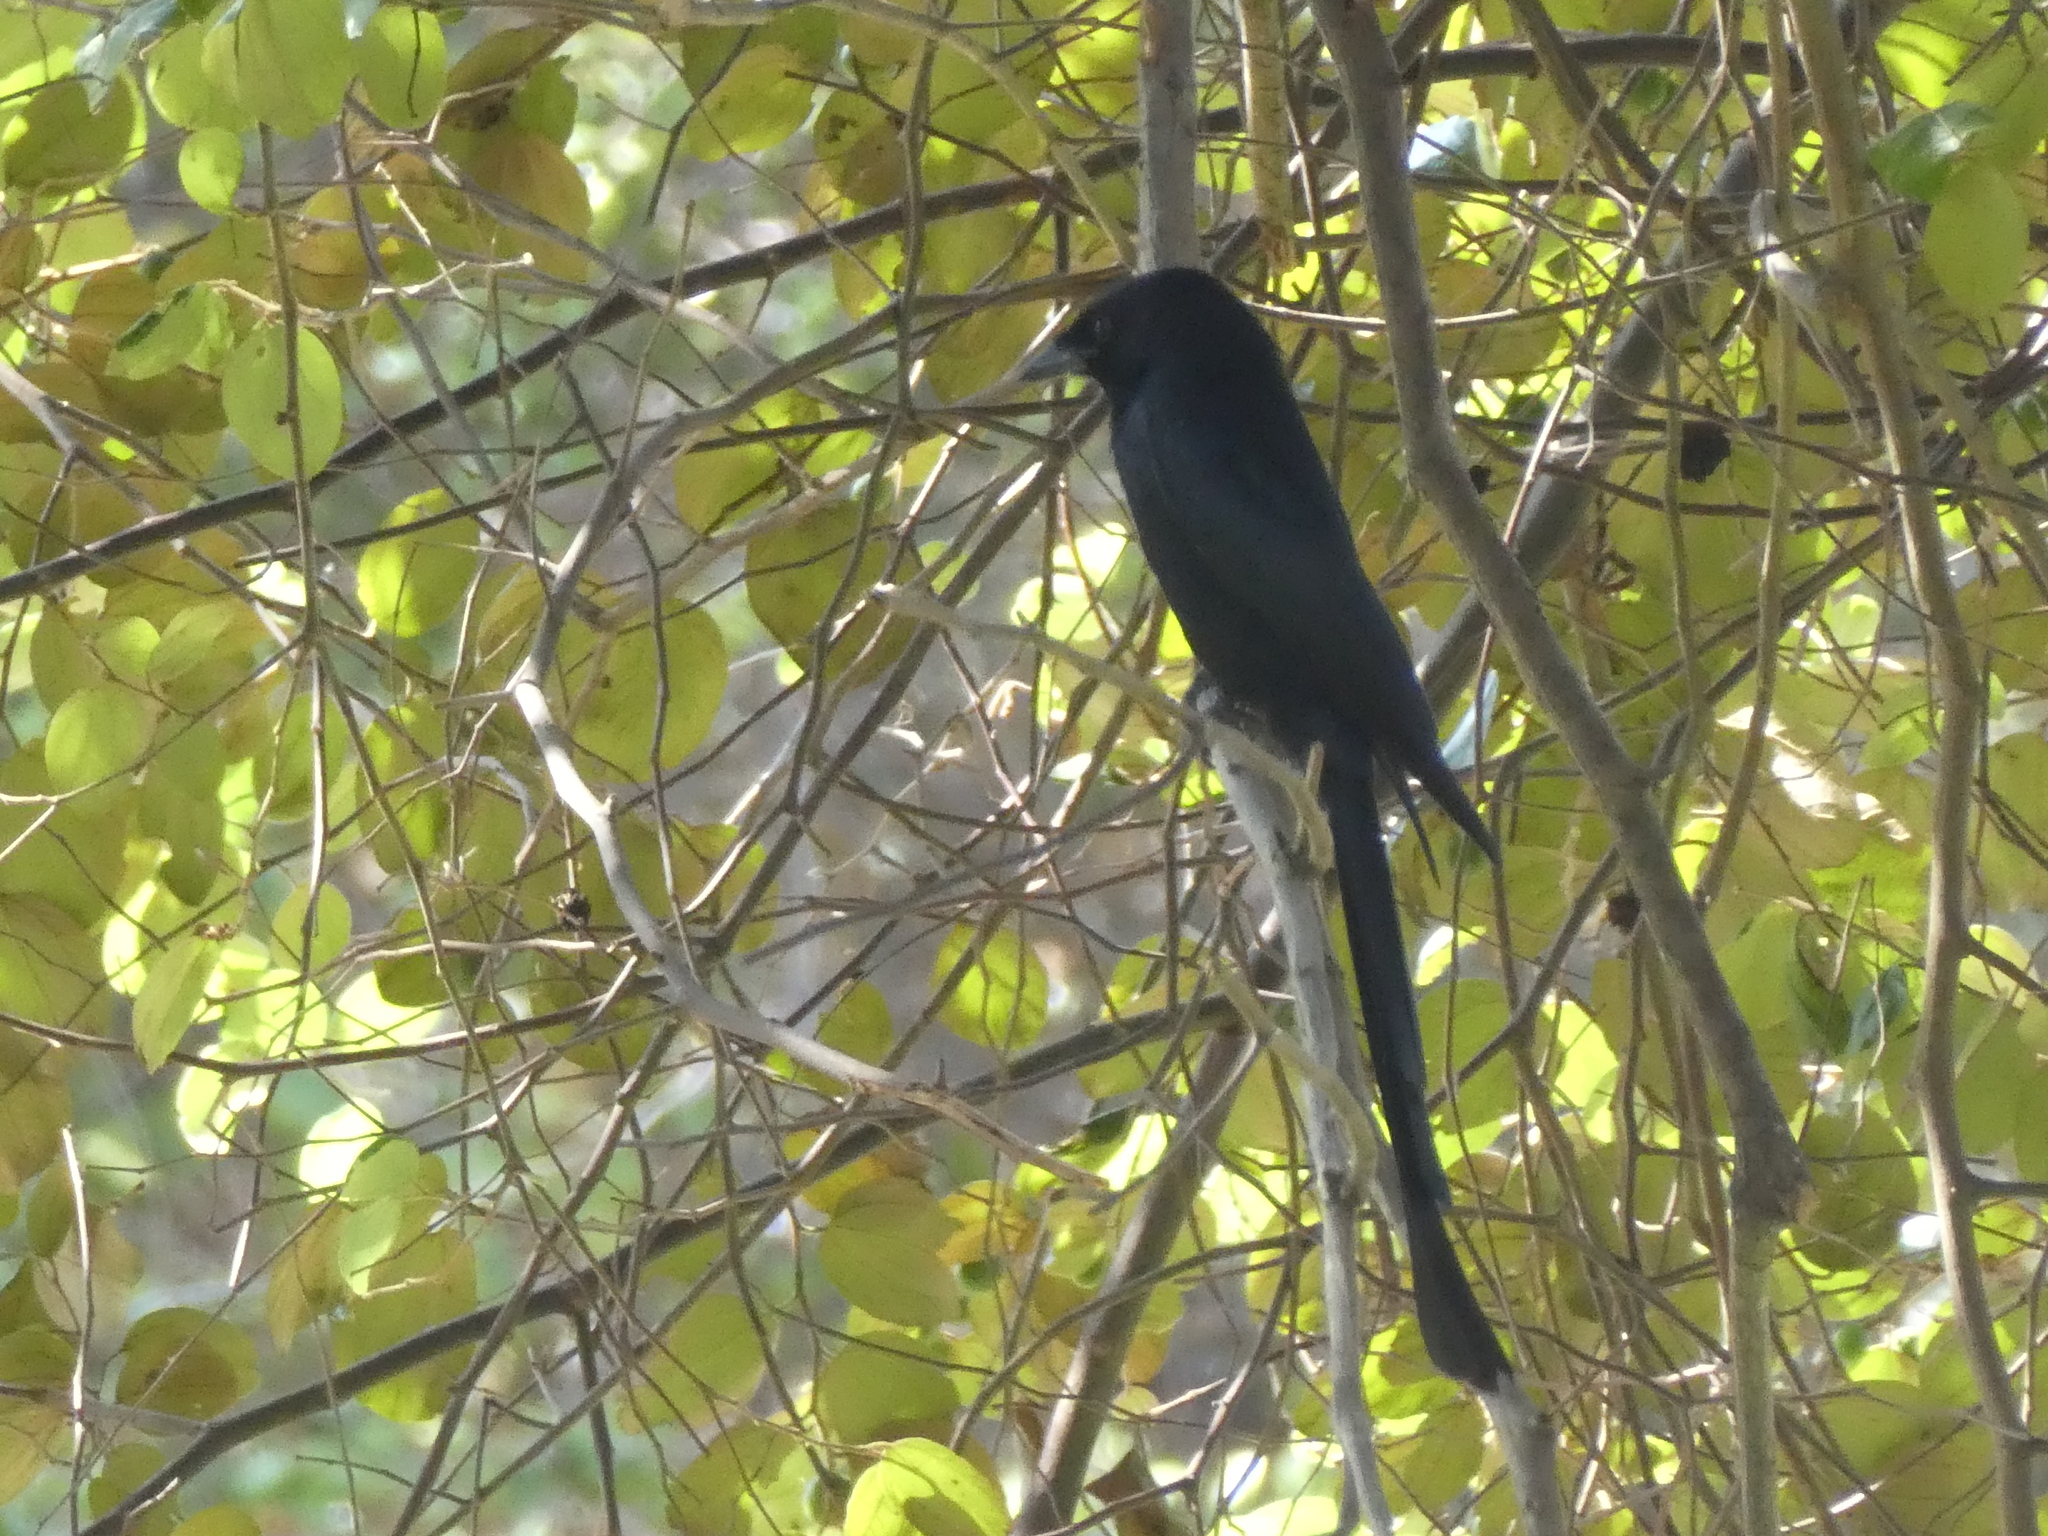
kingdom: Animalia
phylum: Chordata
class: Aves
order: Passeriformes
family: Dicruridae
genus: Dicrurus
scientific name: Dicrurus macrocercus
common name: Black drongo
